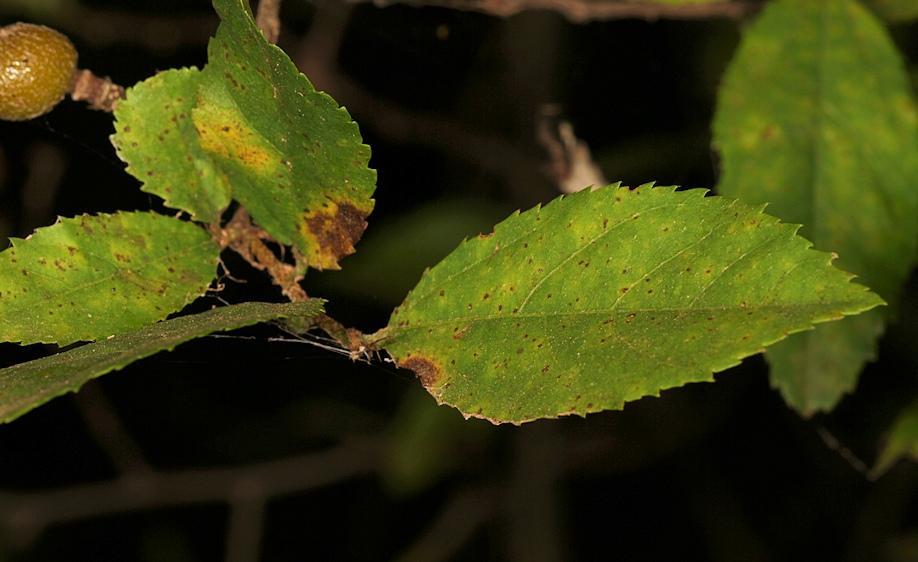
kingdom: Plantae
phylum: Tracheophyta
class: Magnoliopsida
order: Malvales
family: Malvaceae
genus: Grewia
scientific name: Grewia flavescens
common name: Sandpaper raisin
